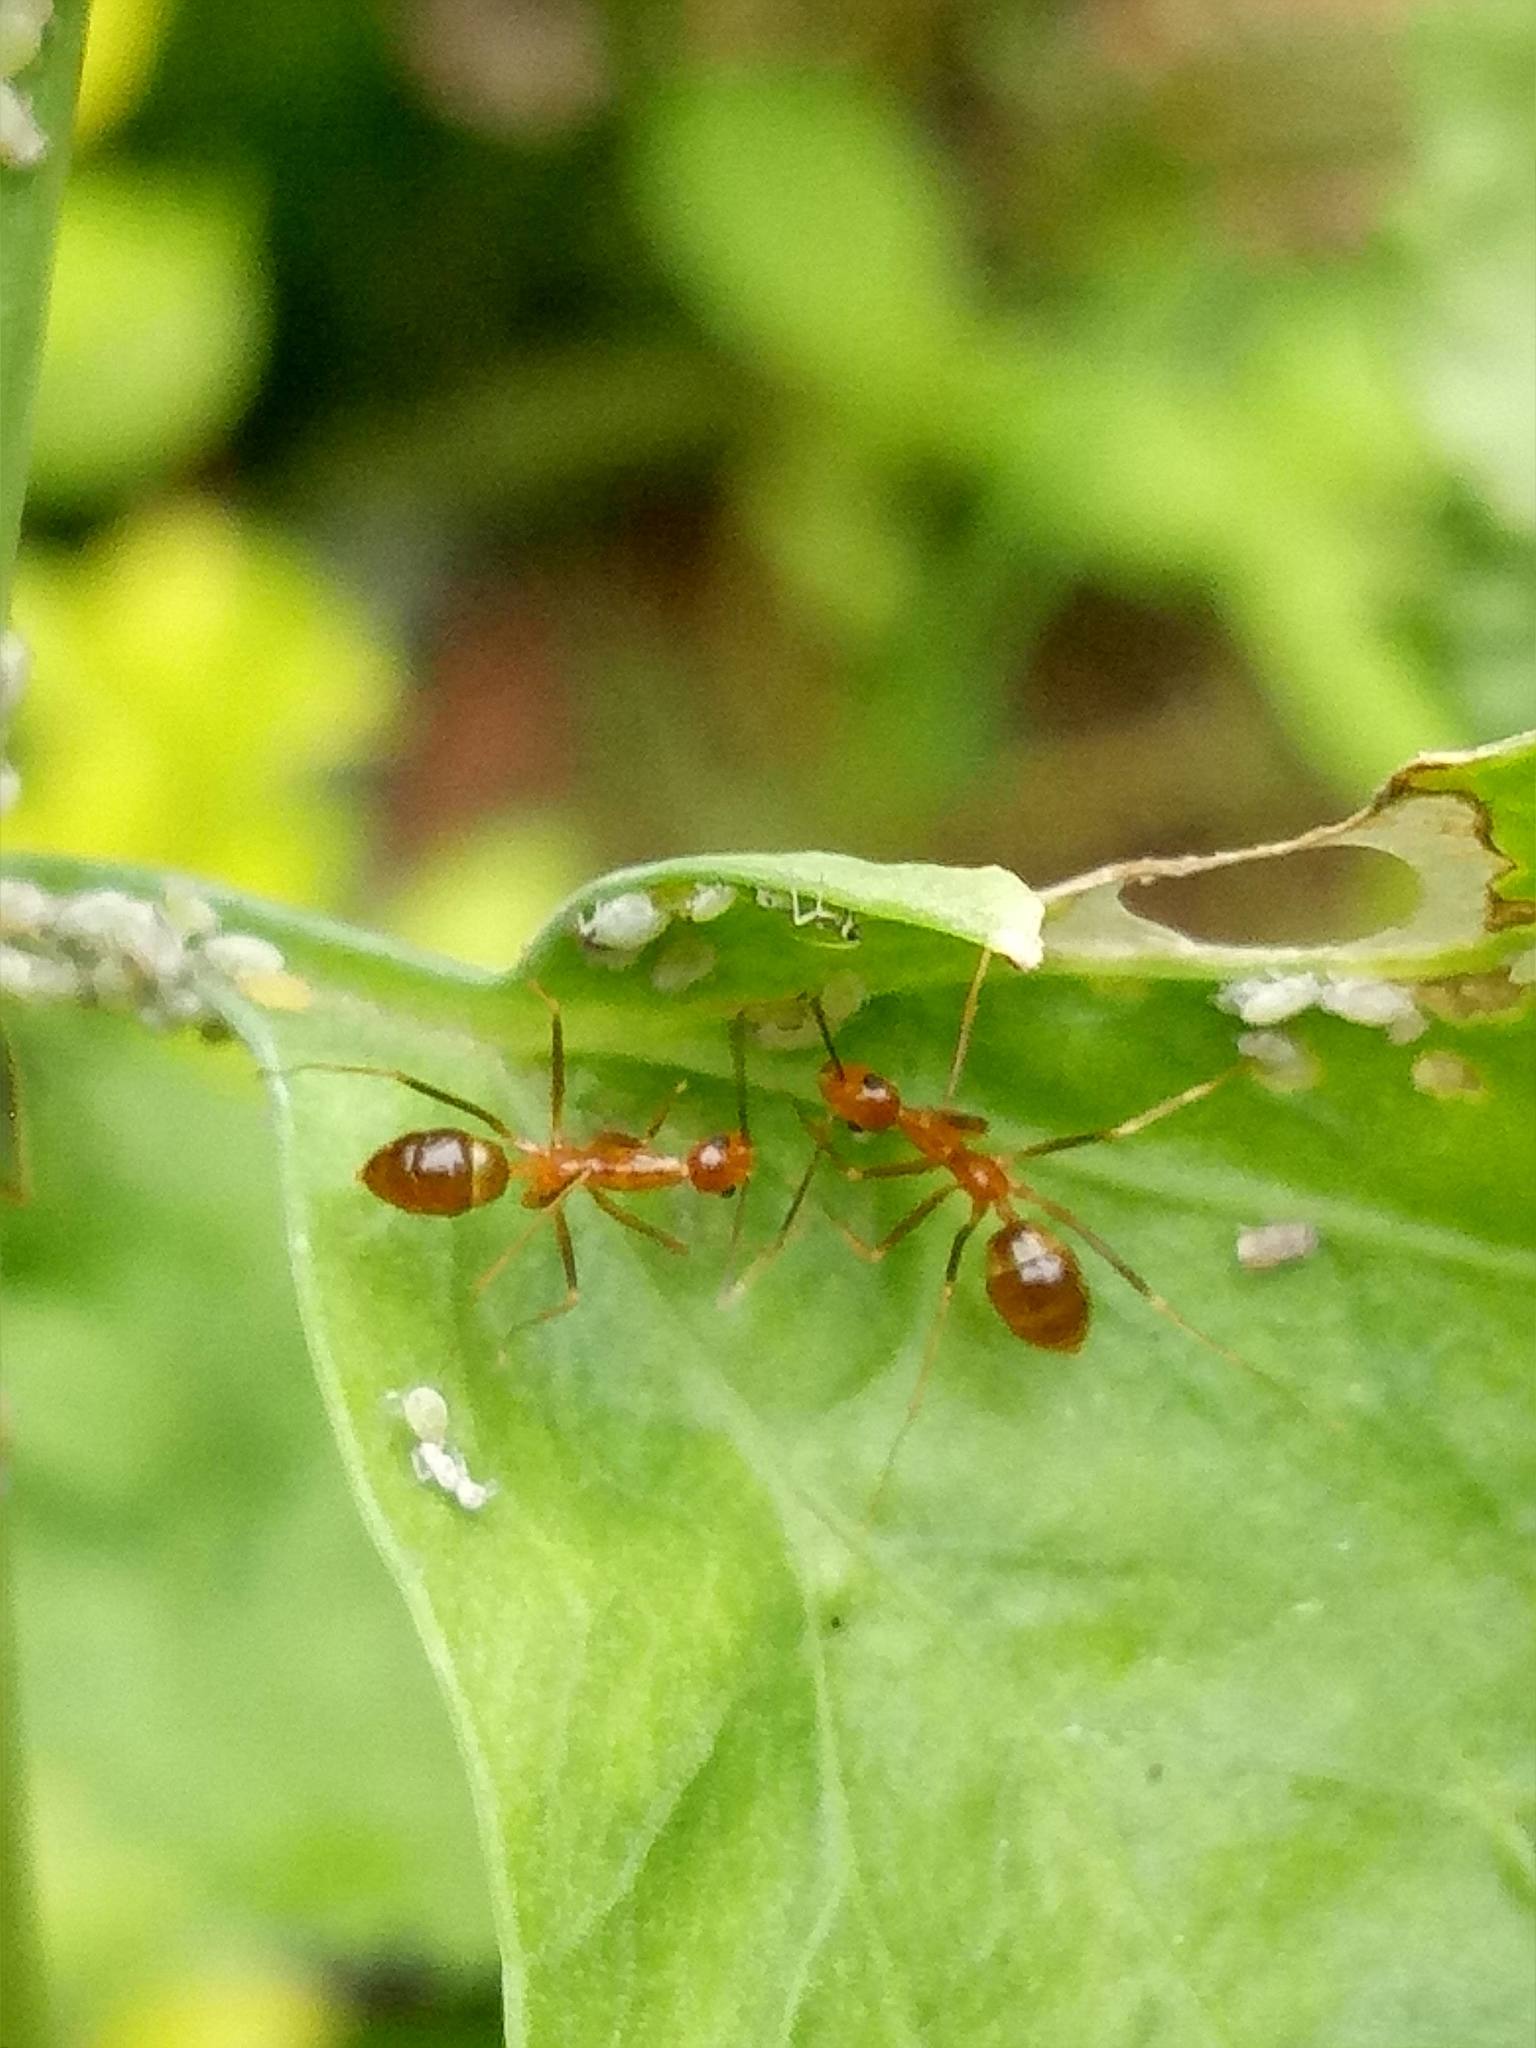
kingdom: Animalia
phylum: Arthropoda
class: Insecta
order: Hymenoptera
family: Formicidae
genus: Anoplolepis
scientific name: Anoplolepis gracilipes
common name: Ant
